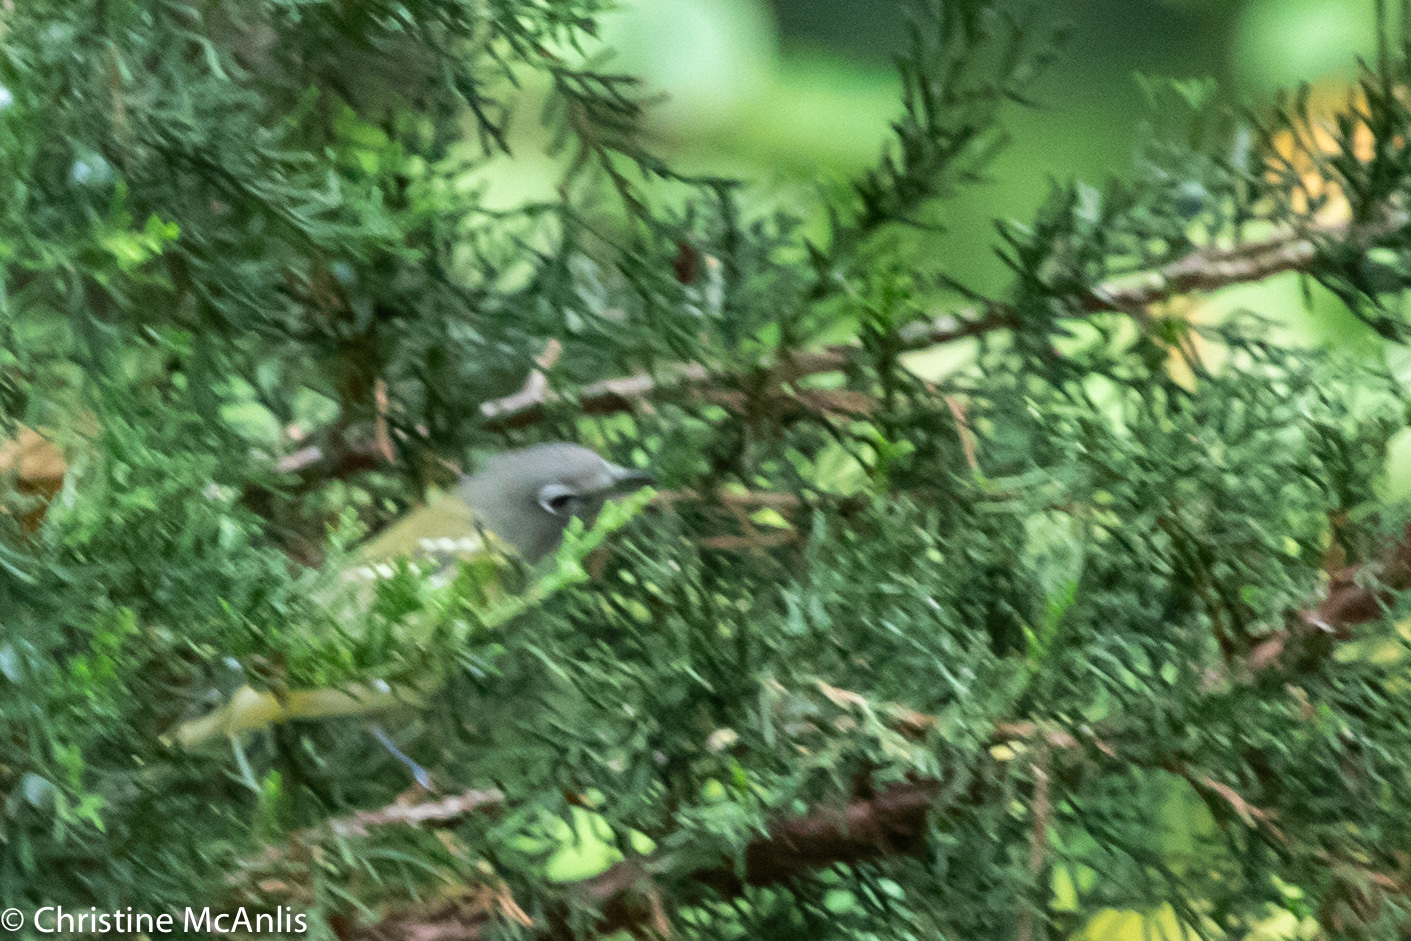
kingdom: Animalia
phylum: Chordata
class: Aves
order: Passeriformes
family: Vireonidae
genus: Vireo
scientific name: Vireo solitarius
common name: Blue-headed vireo
